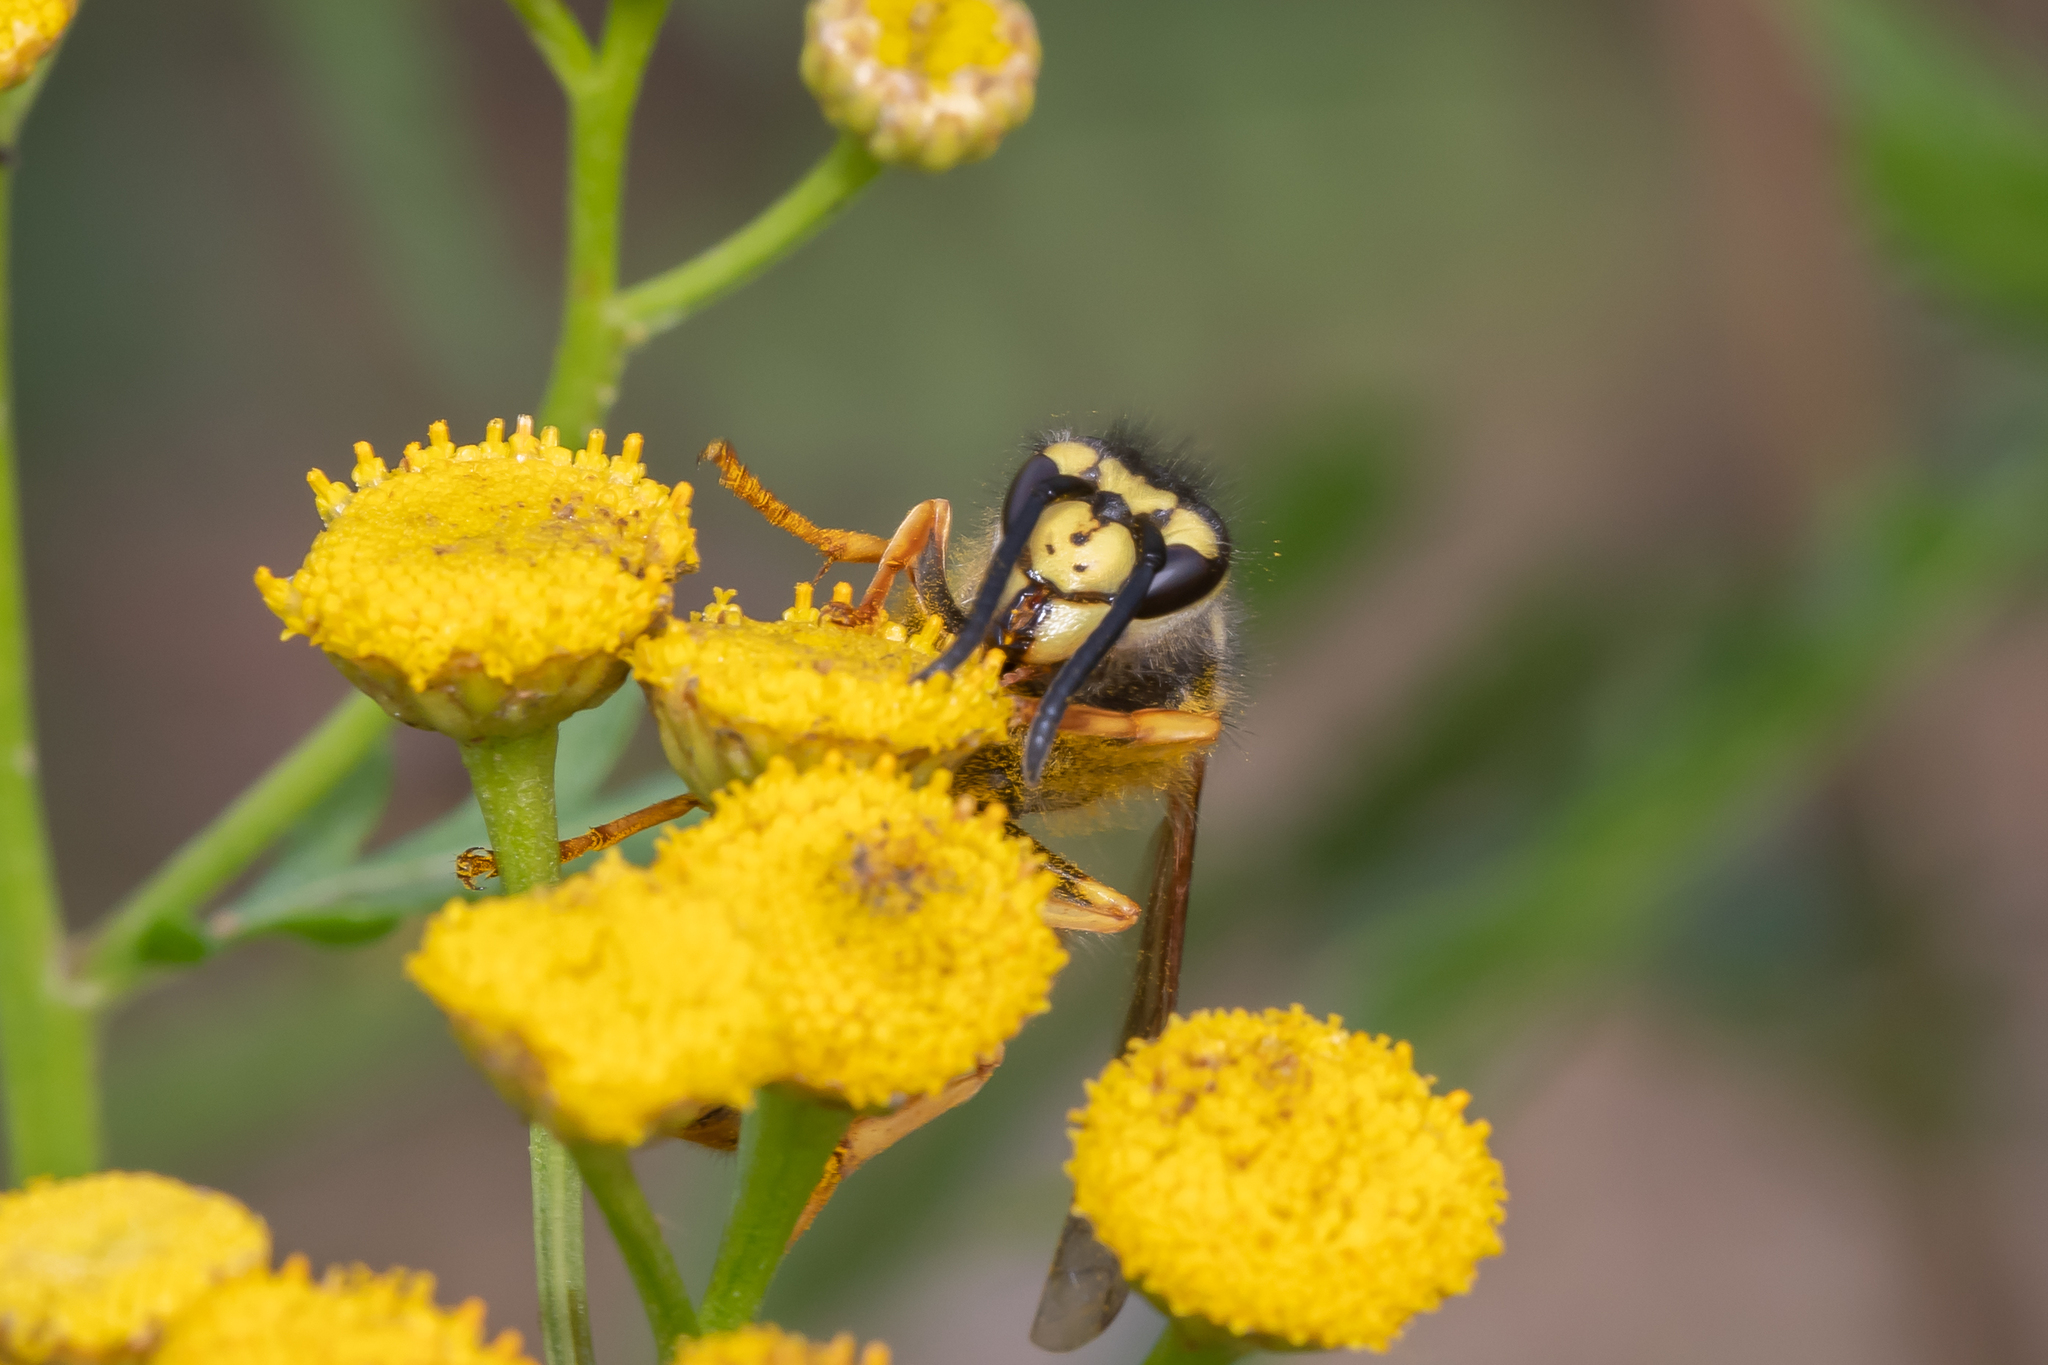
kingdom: Animalia
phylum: Arthropoda
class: Insecta
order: Hymenoptera
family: Vespidae
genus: Vespula
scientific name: Vespula germanica
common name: German wasp
